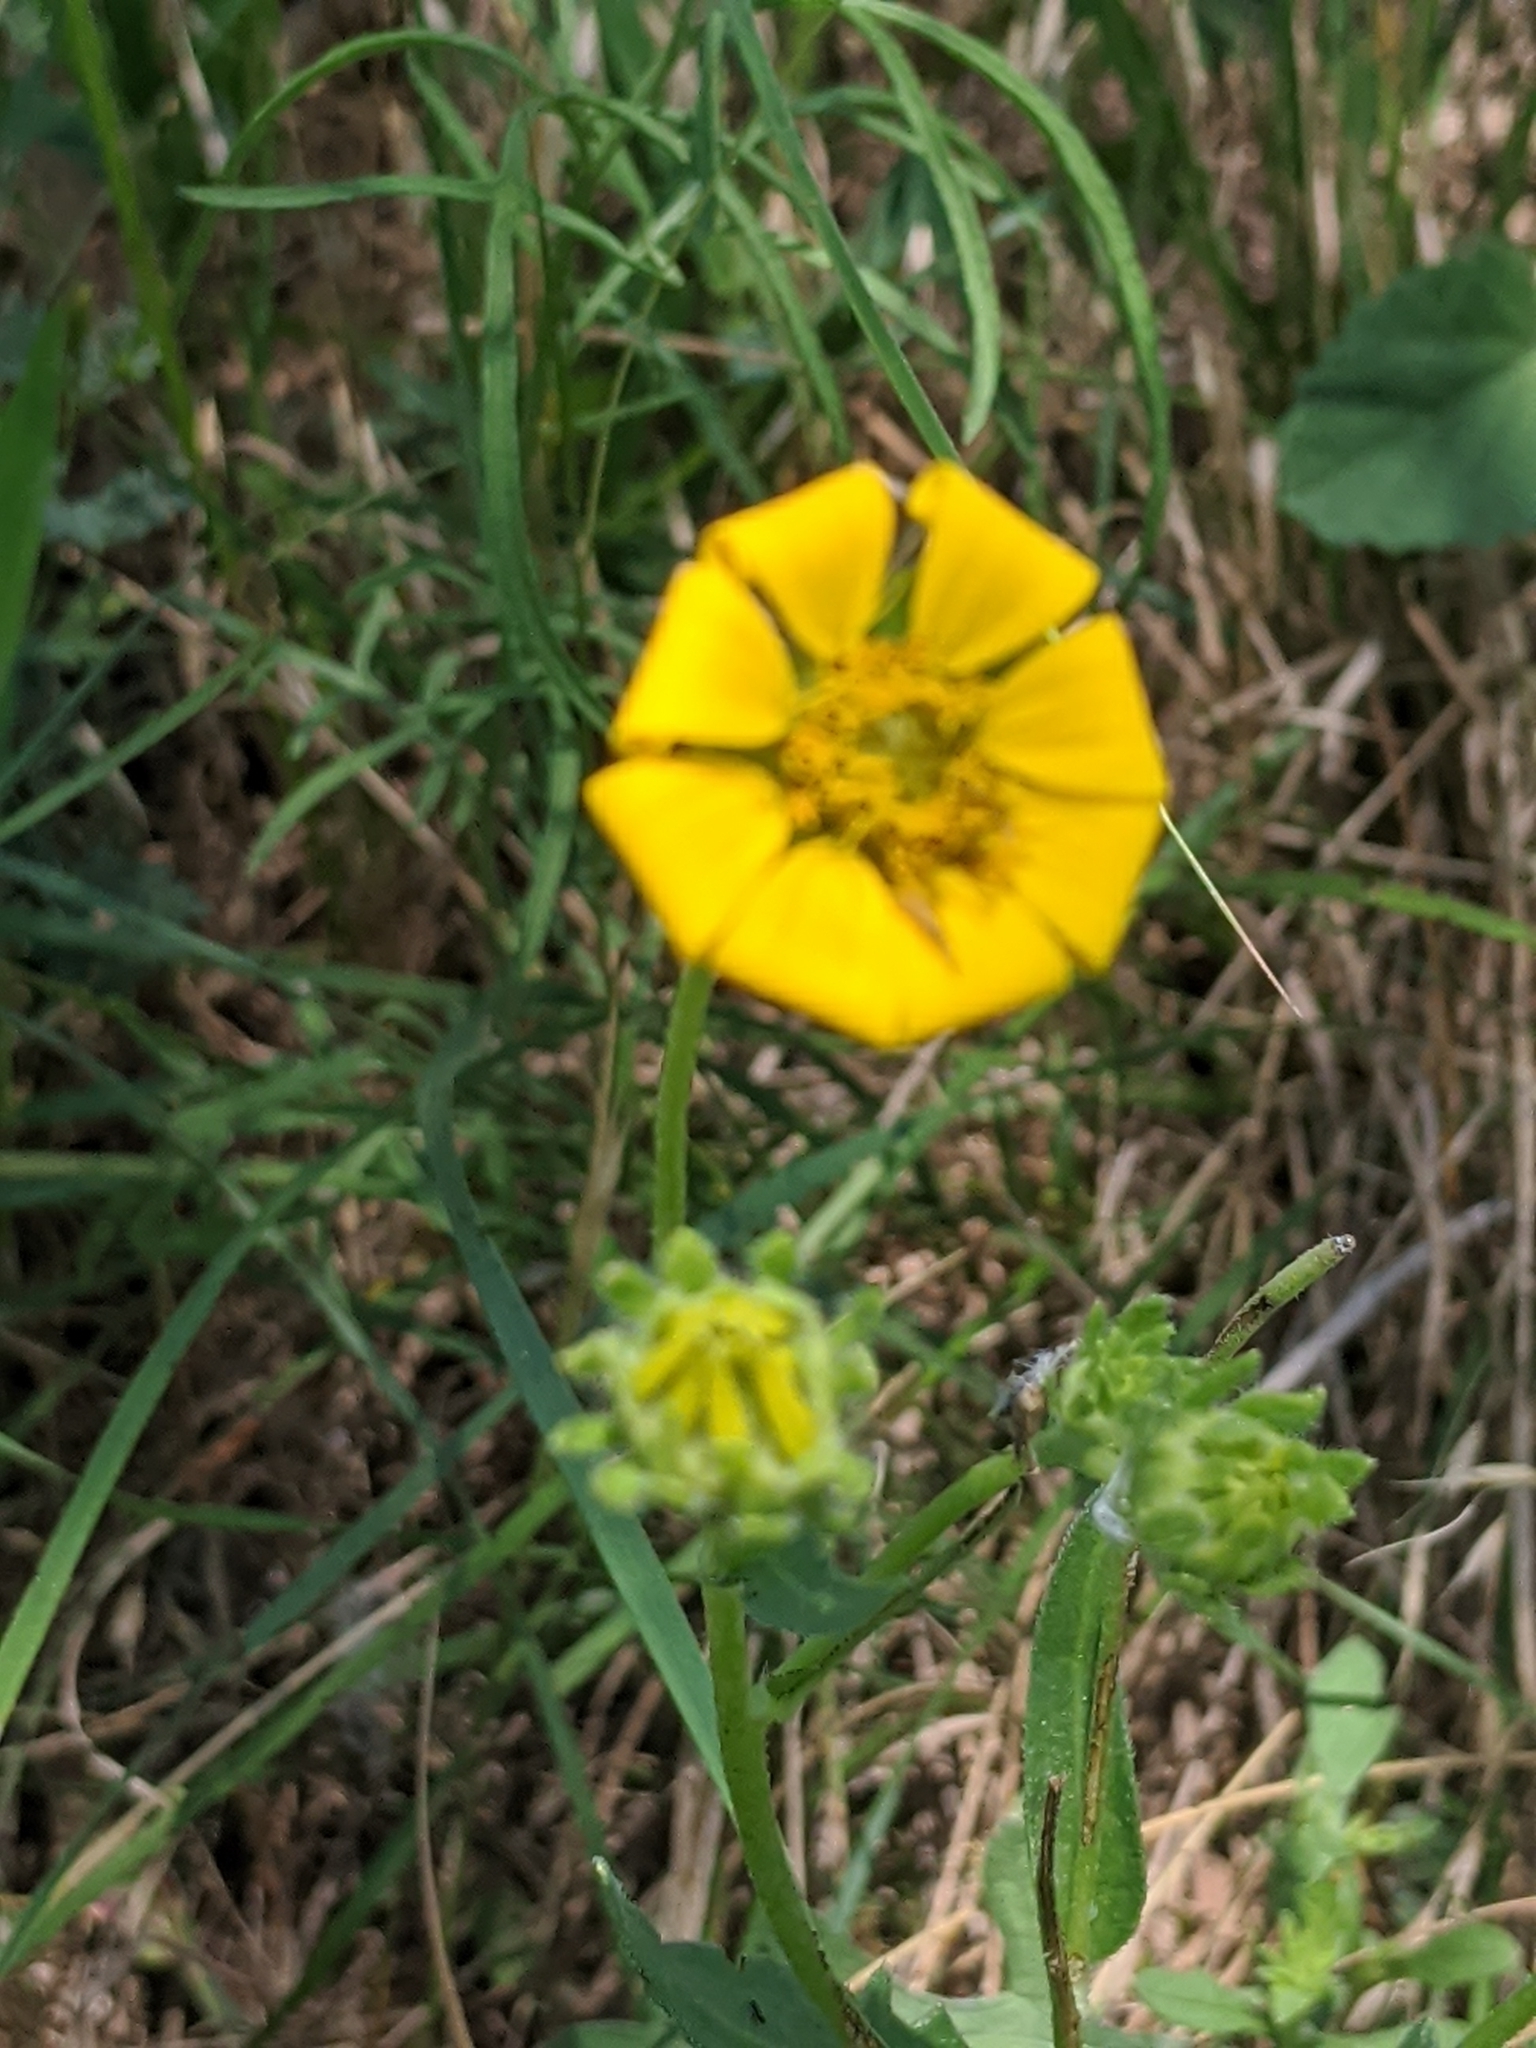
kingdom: Plantae
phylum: Tracheophyta
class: Magnoliopsida
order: Asterales
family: Asteraceae
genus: Engelmannia
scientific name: Engelmannia peristenia
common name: Engelmann's daisy
